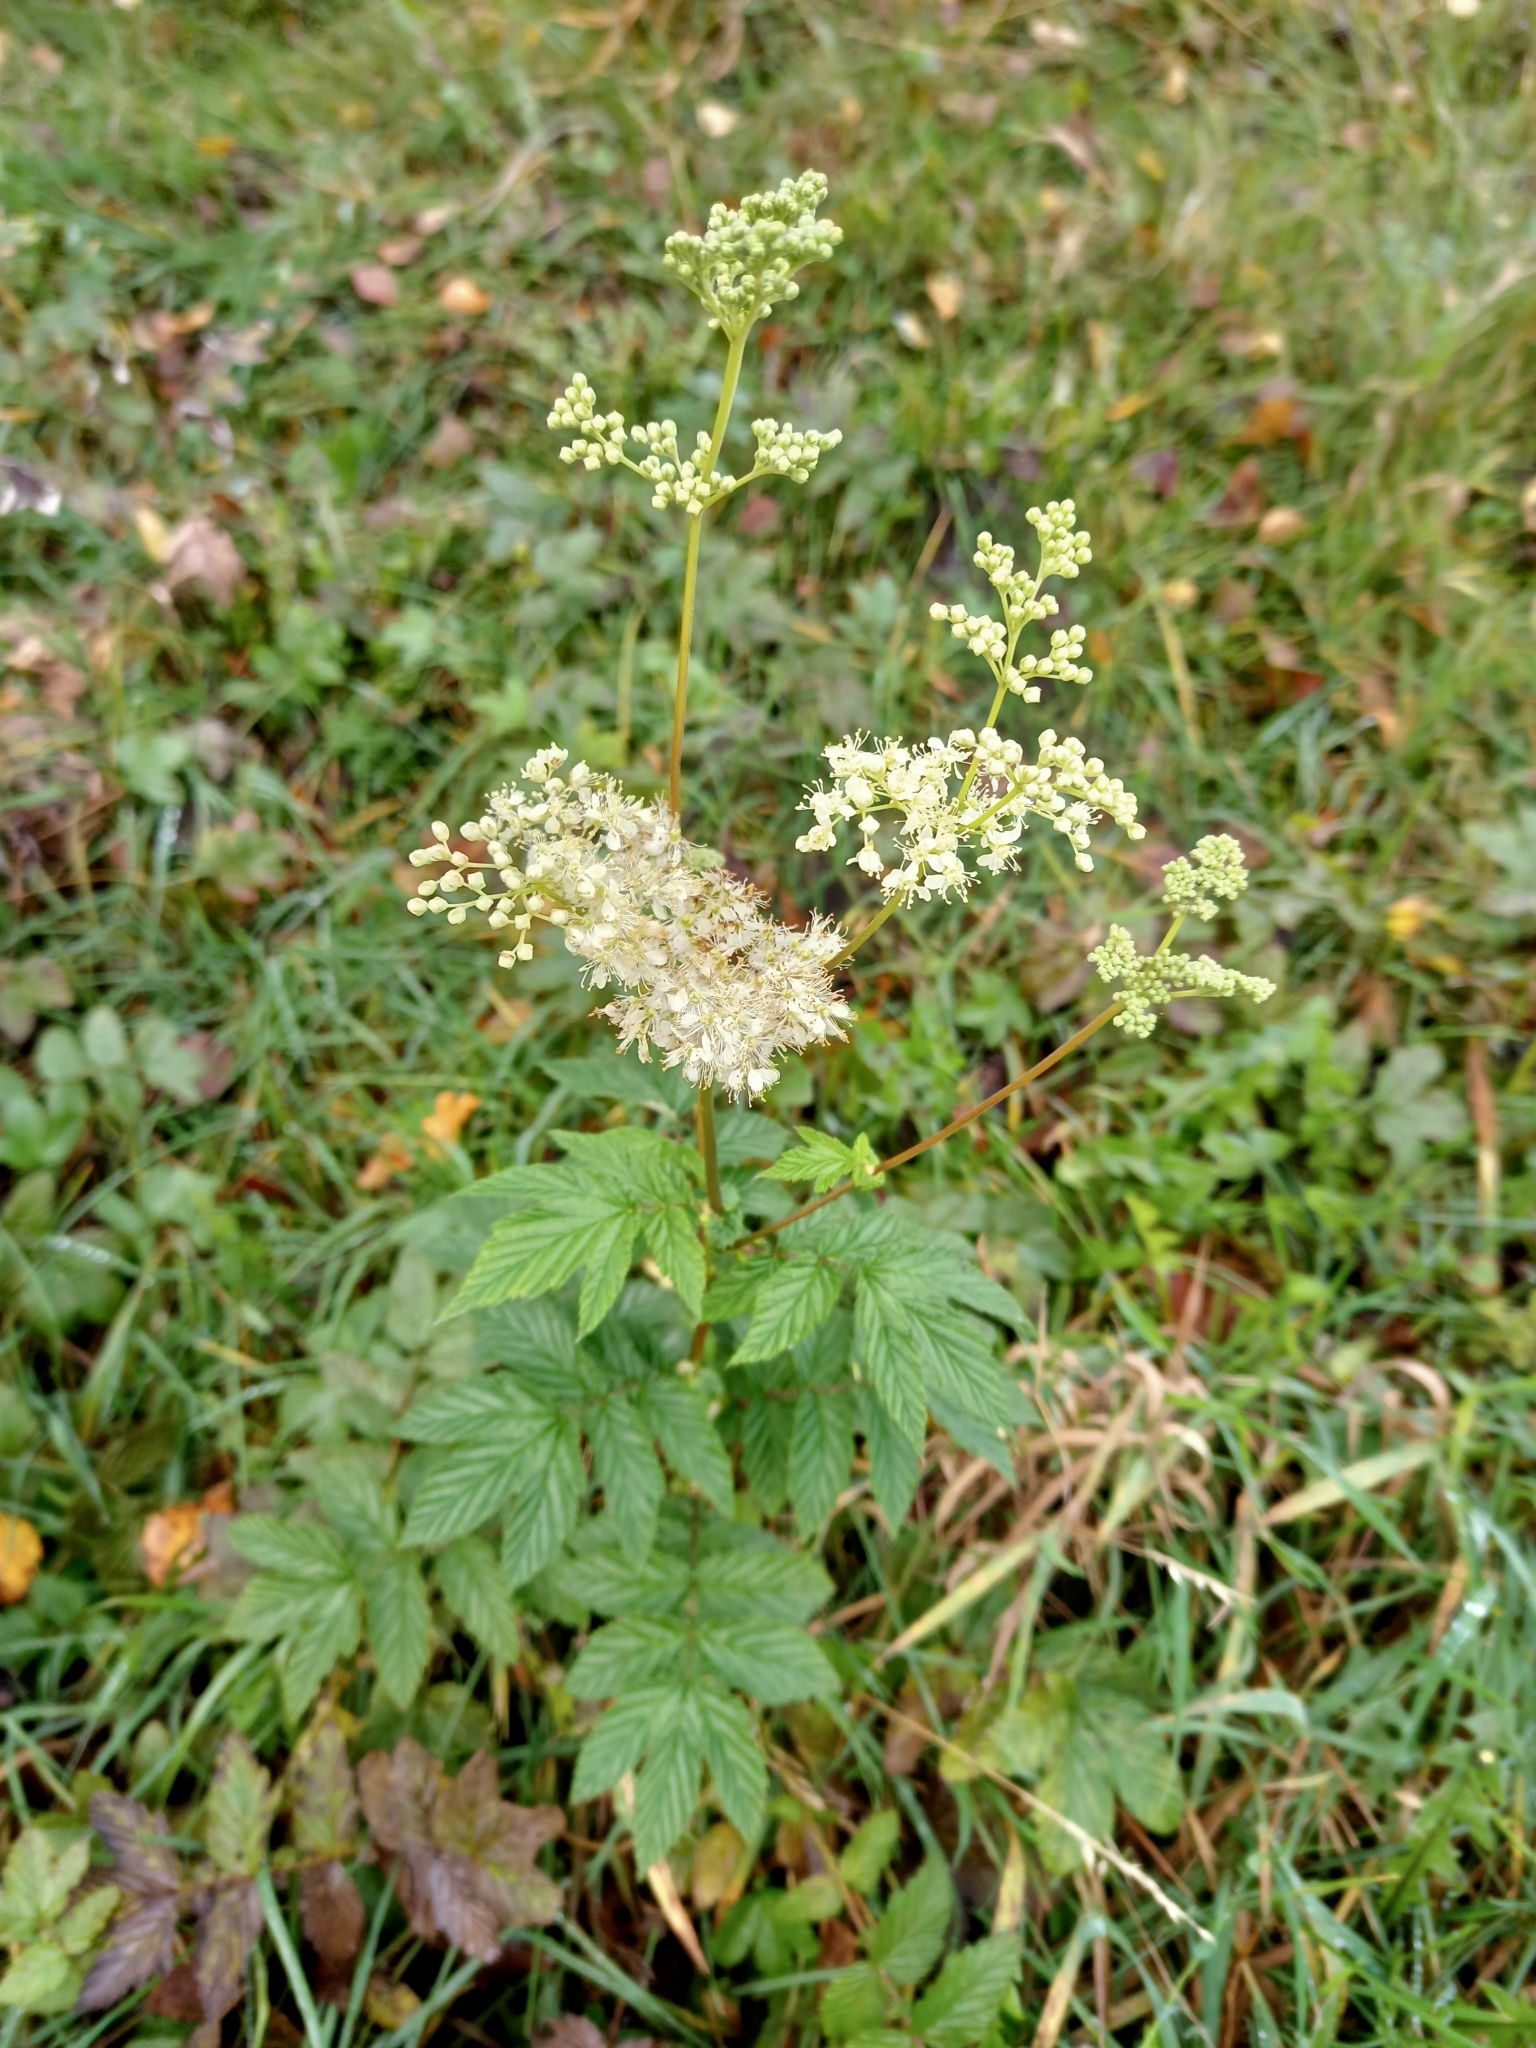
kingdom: Plantae
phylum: Tracheophyta
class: Magnoliopsida
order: Rosales
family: Rosaceae
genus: Filipendula
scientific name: Filipendula ulmaria
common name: Meadowsweet
